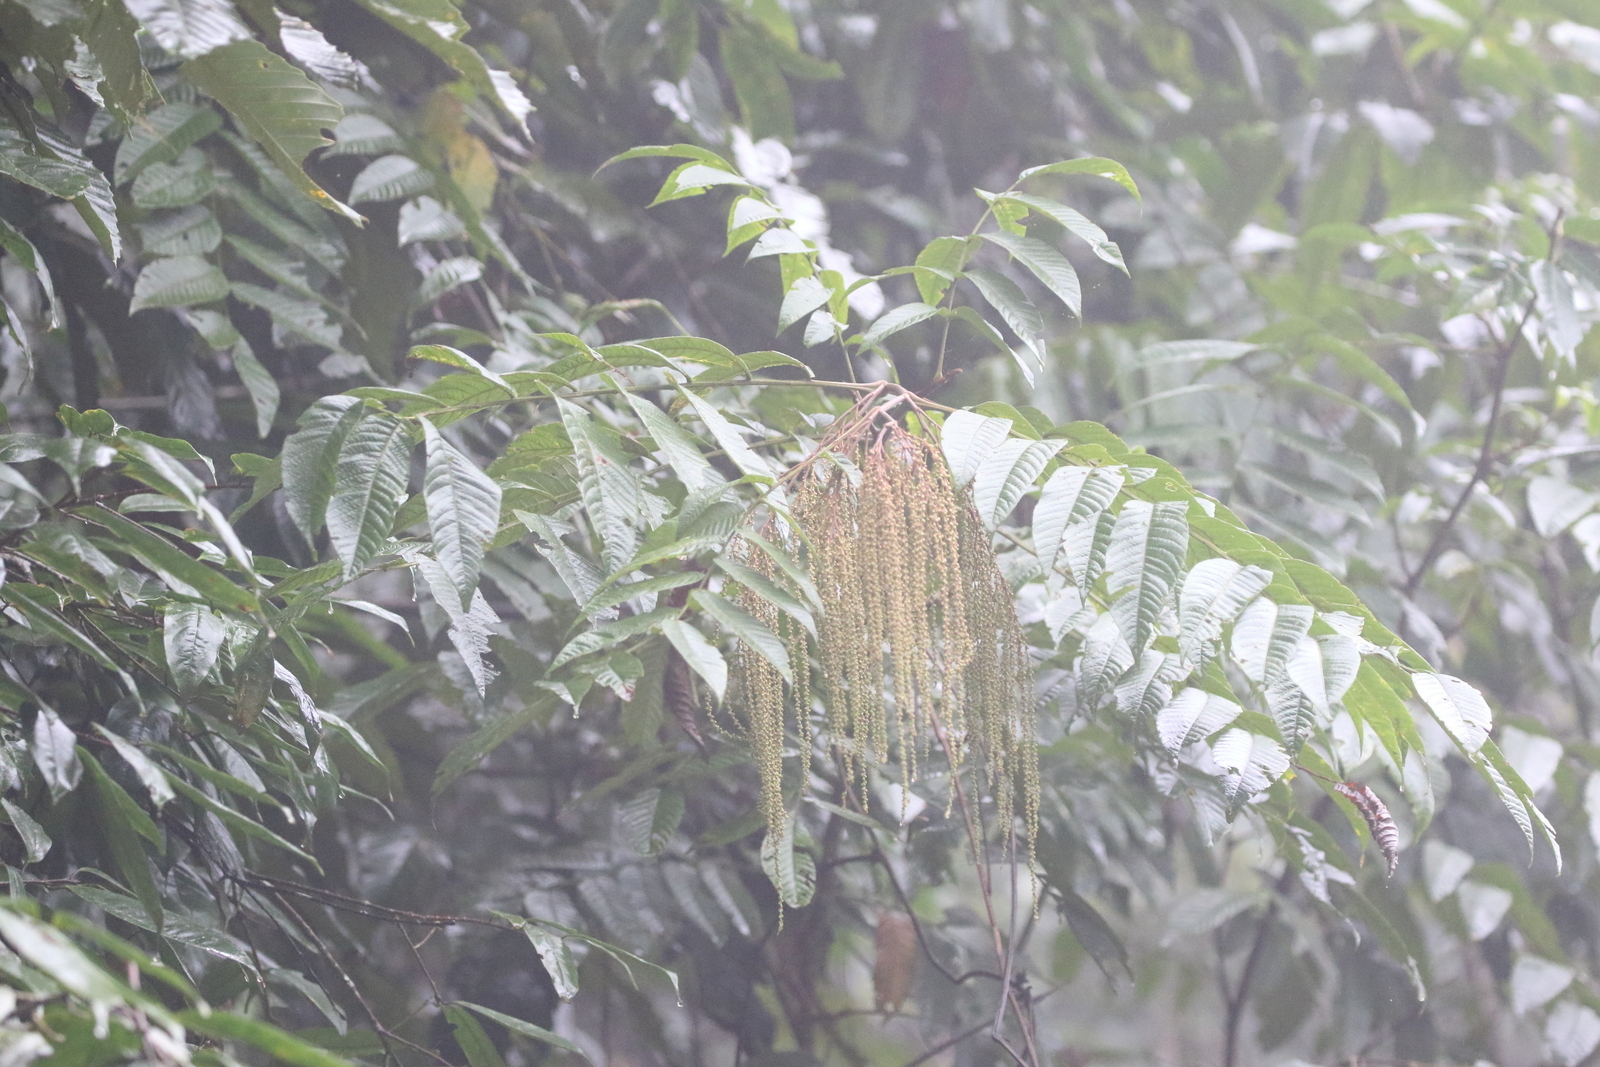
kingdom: Plantae
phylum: Tracheophyta
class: Magnoliopsida
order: Fagales
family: Juglandaceae
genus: Rhoiptelea
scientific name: Rhoiptelea chiliantha
